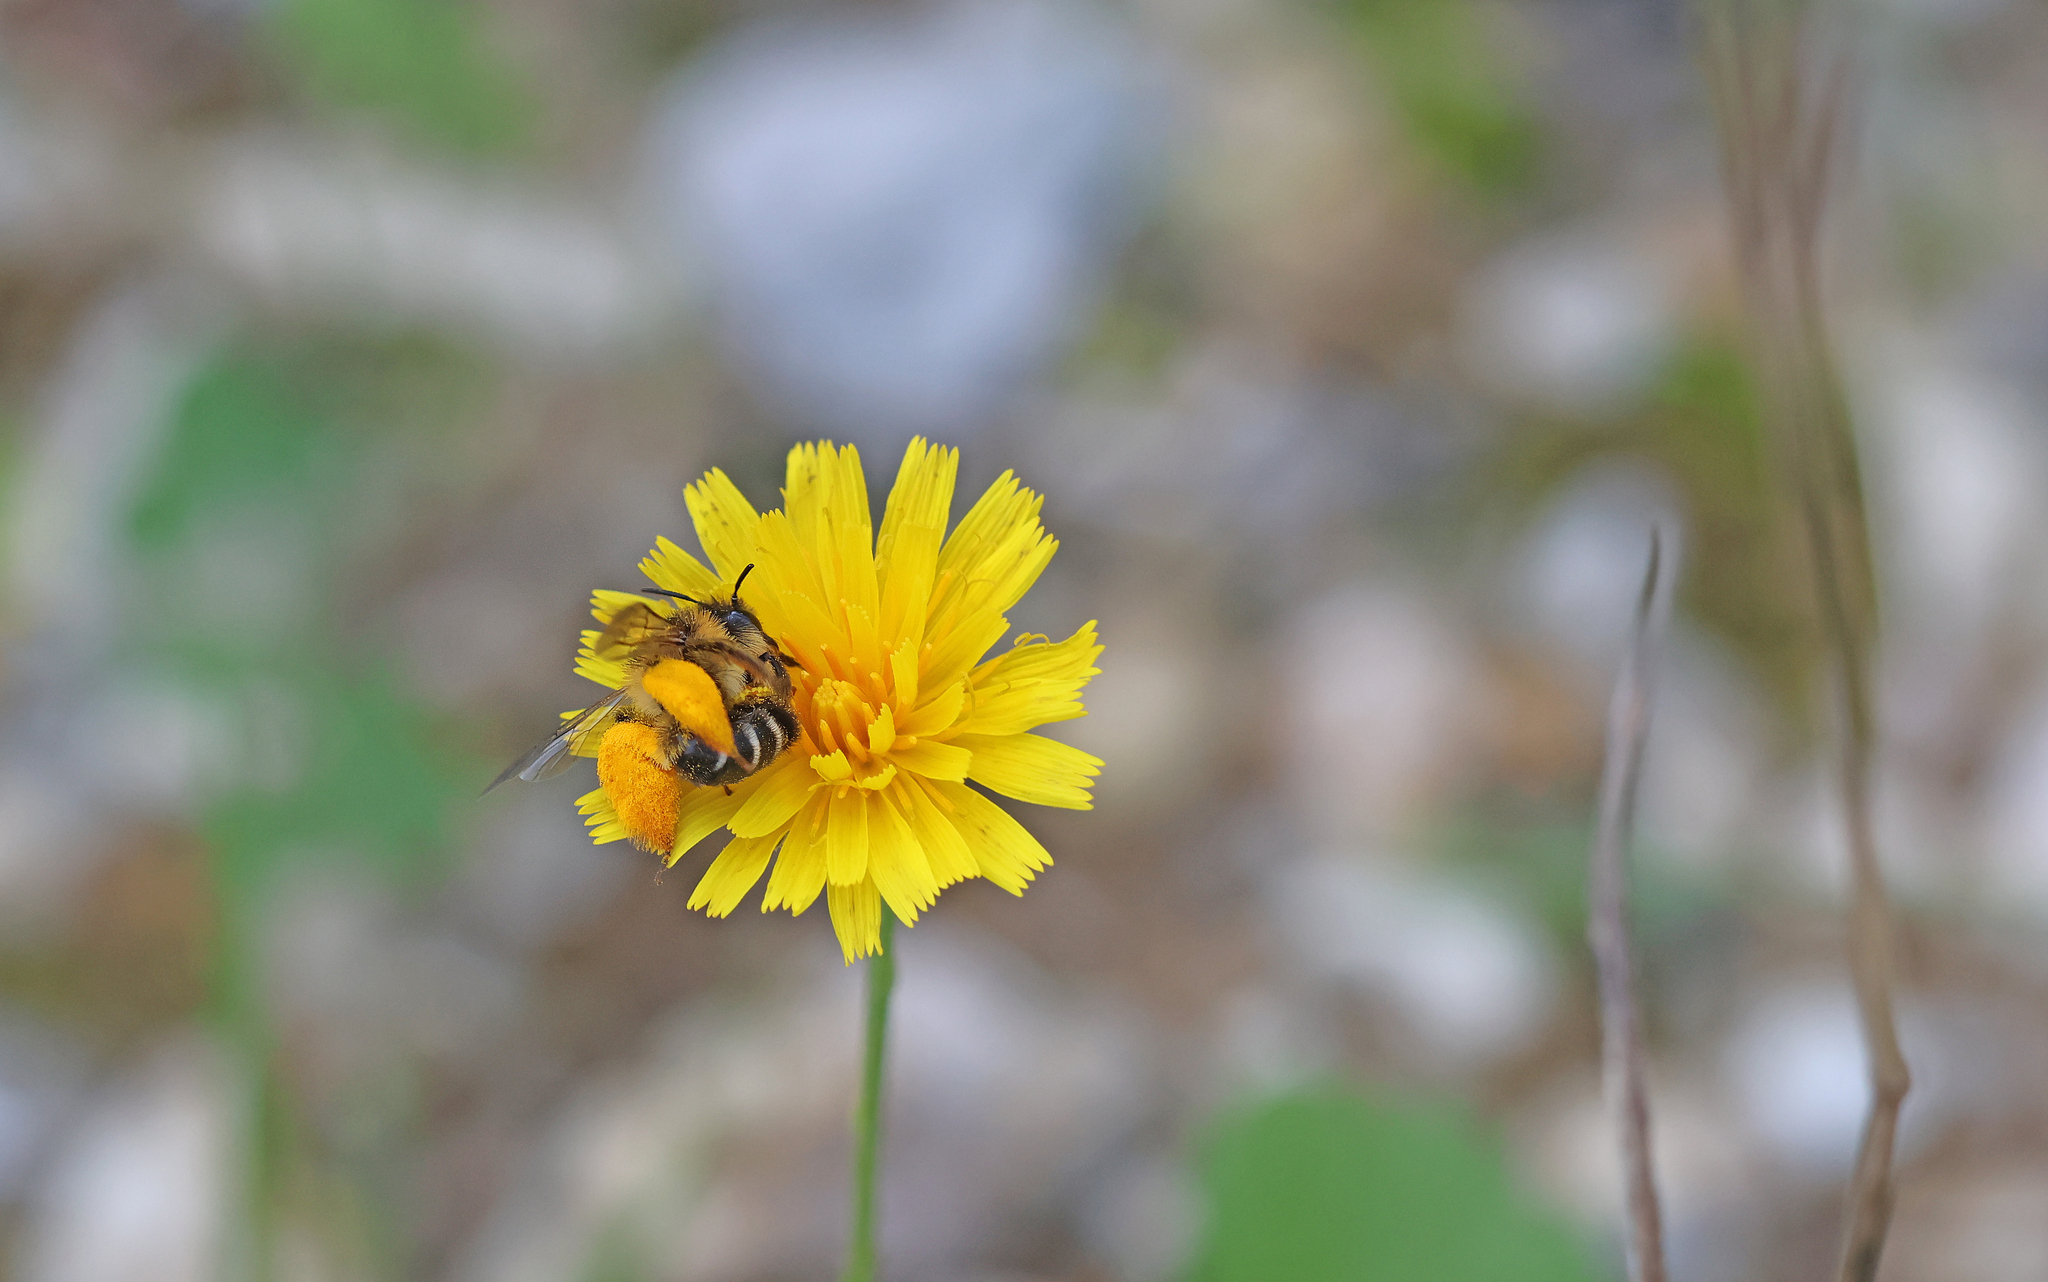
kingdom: Animalia
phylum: Arthropoda
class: Insecta
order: Hymenoptera
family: Melittidae
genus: Dasypoda
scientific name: Dasypoda hirtipes
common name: Pantaloon bee
